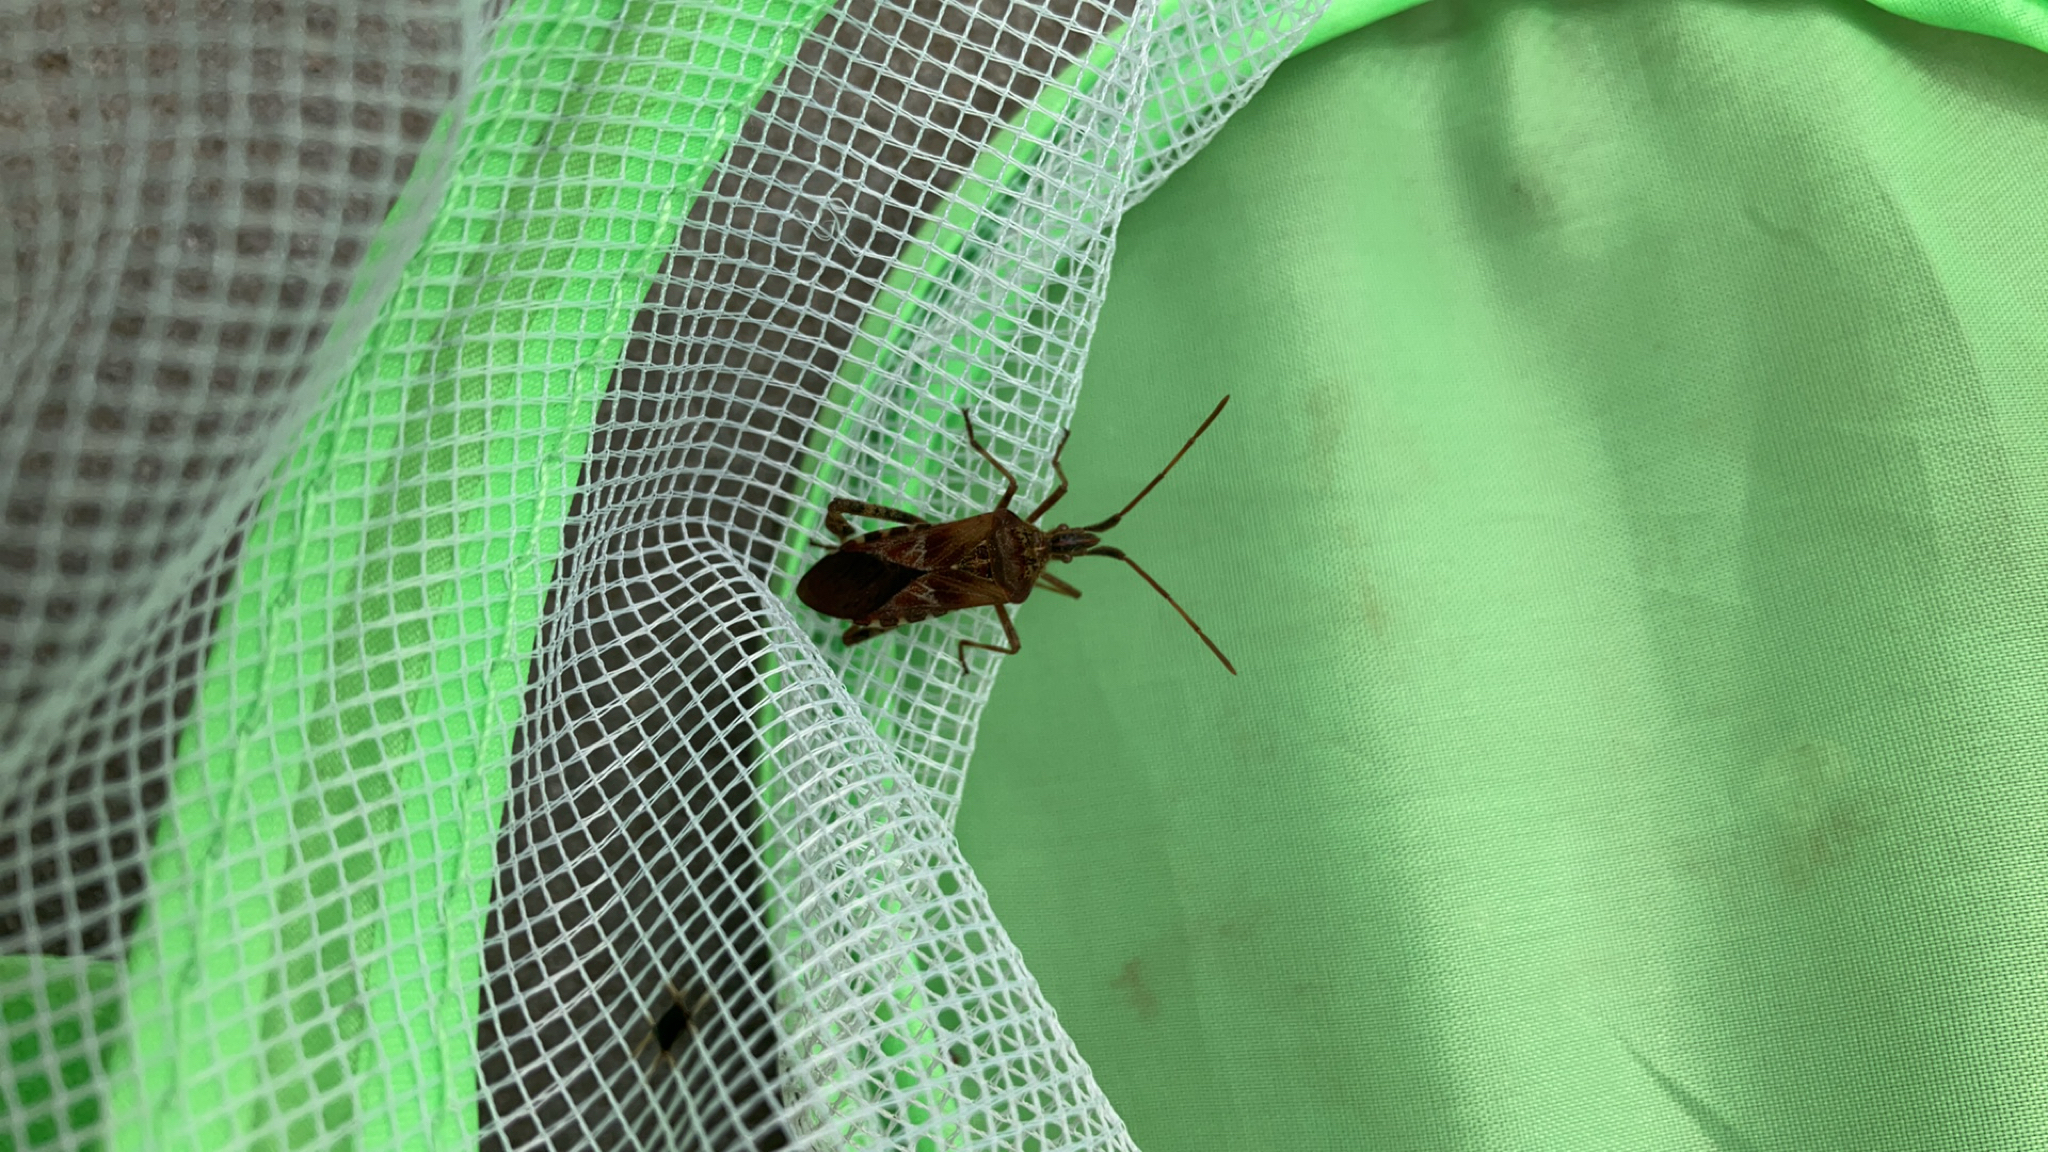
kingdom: Animalia
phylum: Arthropoda
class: Insecta
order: Hemiptera
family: Coreidae
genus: Leptoglossus
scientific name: Leptoglossus occidentalis
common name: Western conifer-seed bug
